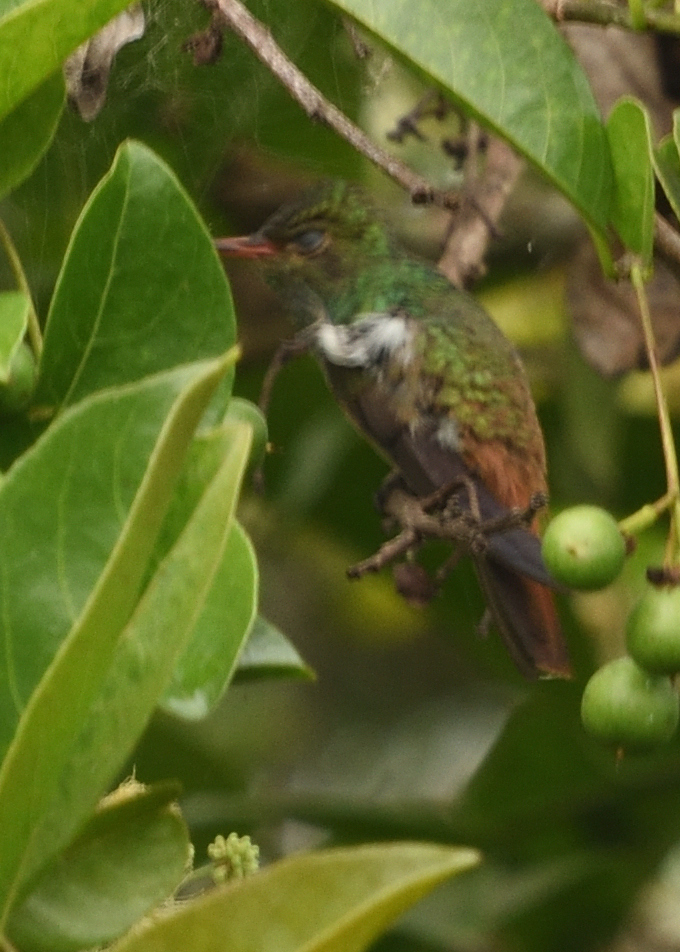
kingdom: Animalia
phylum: Chordata
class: Aves
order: Apodiformes
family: Trochilidae
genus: Amazilia
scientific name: Amazilia tzacatl
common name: Rufous-tailed hummingbird
